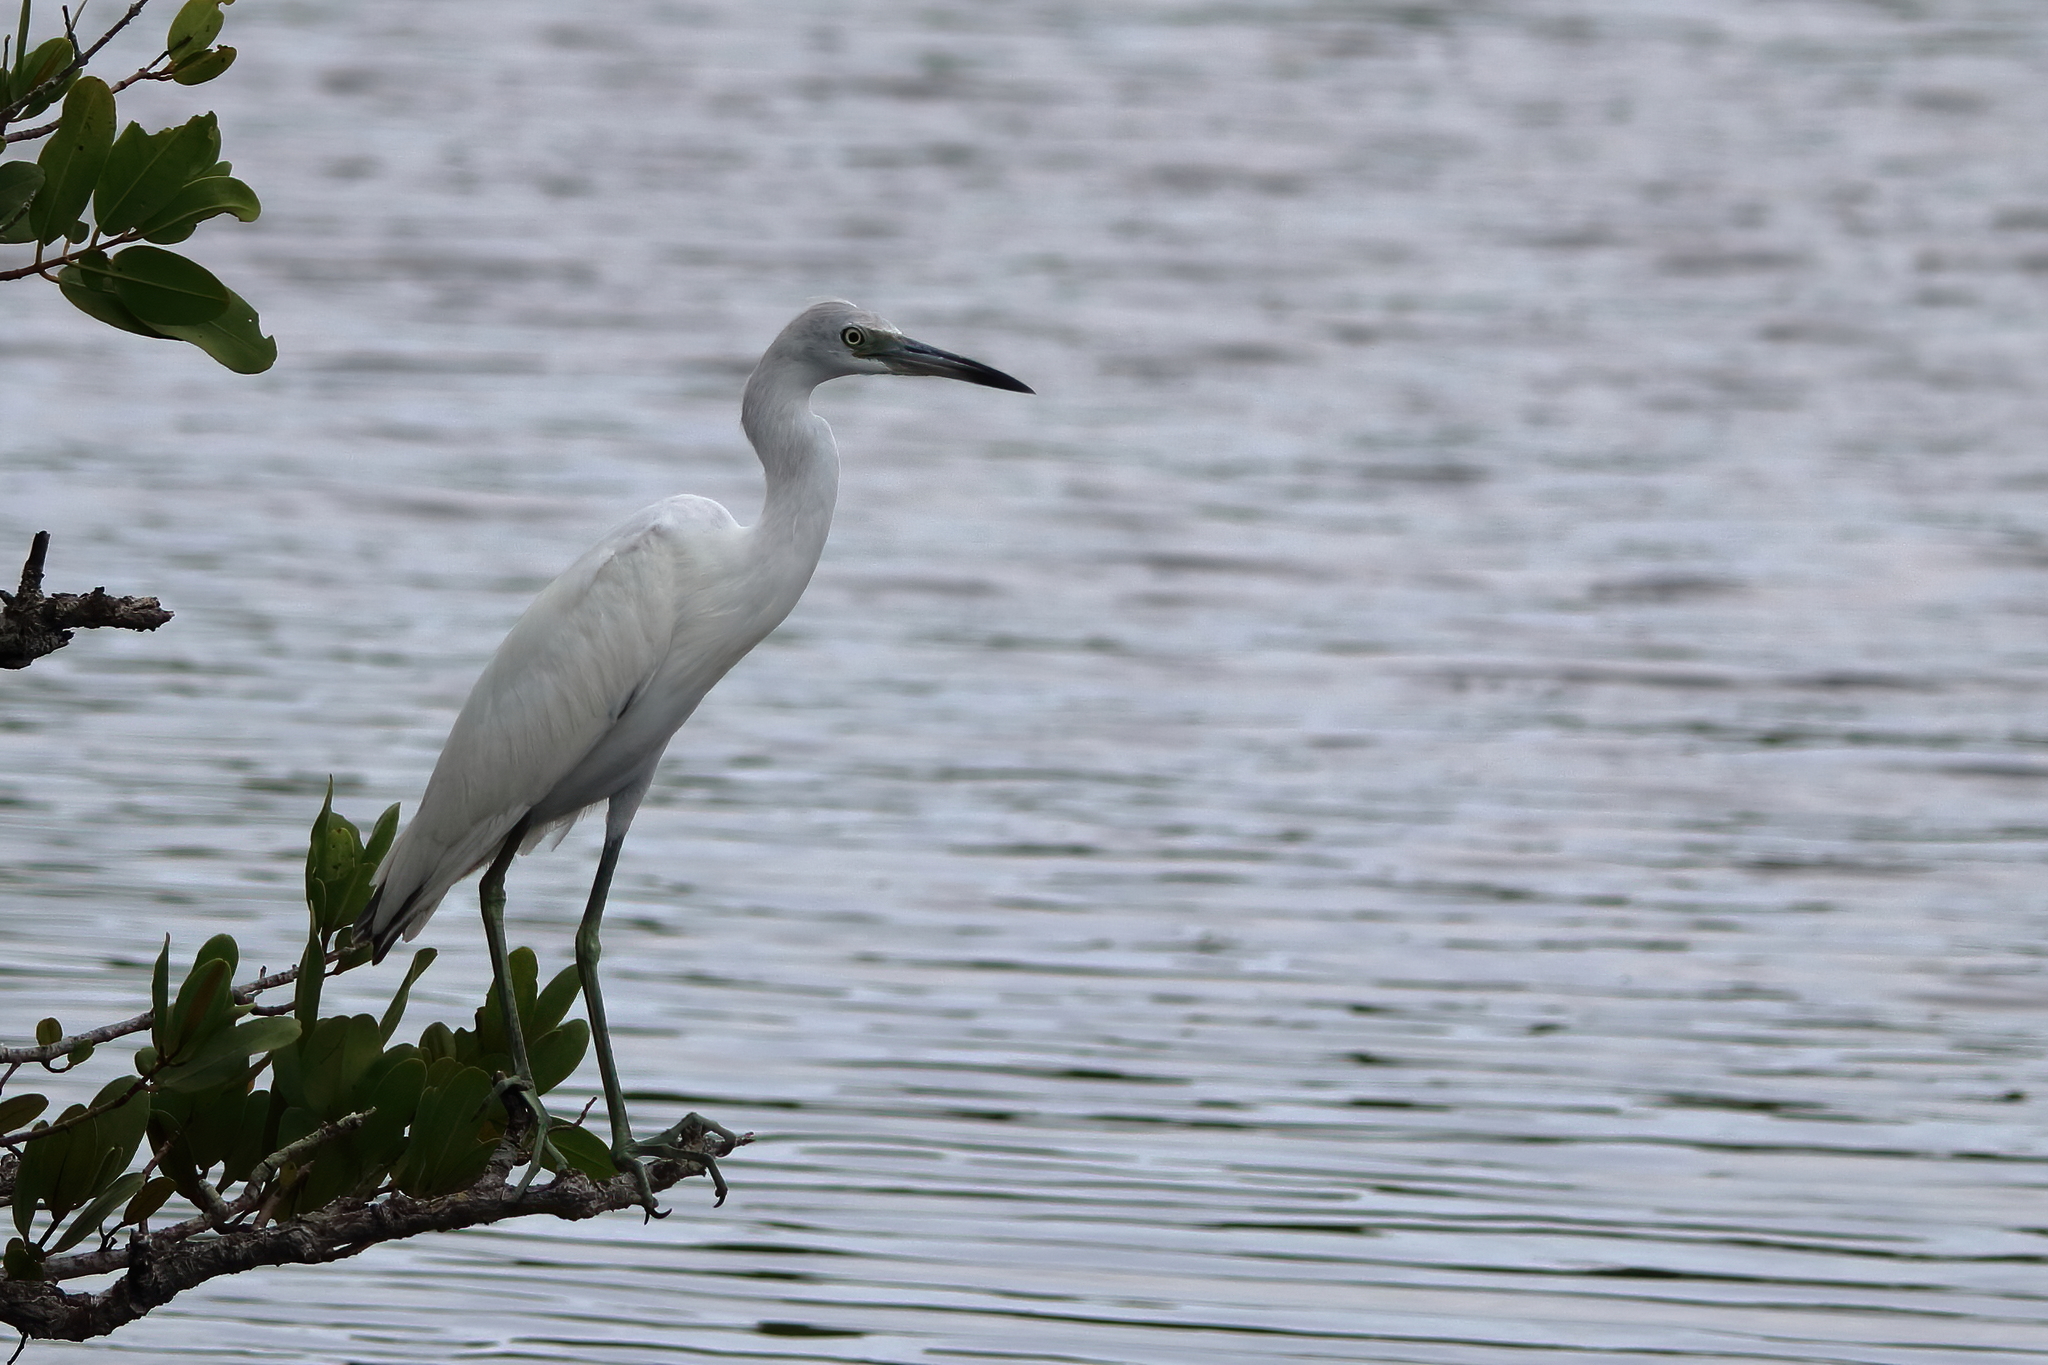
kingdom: Animalia
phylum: Chordata
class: Aves
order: Pelecaniformes
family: Ardeidae
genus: Egretta
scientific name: Egretta caerulea
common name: Little blue heron
